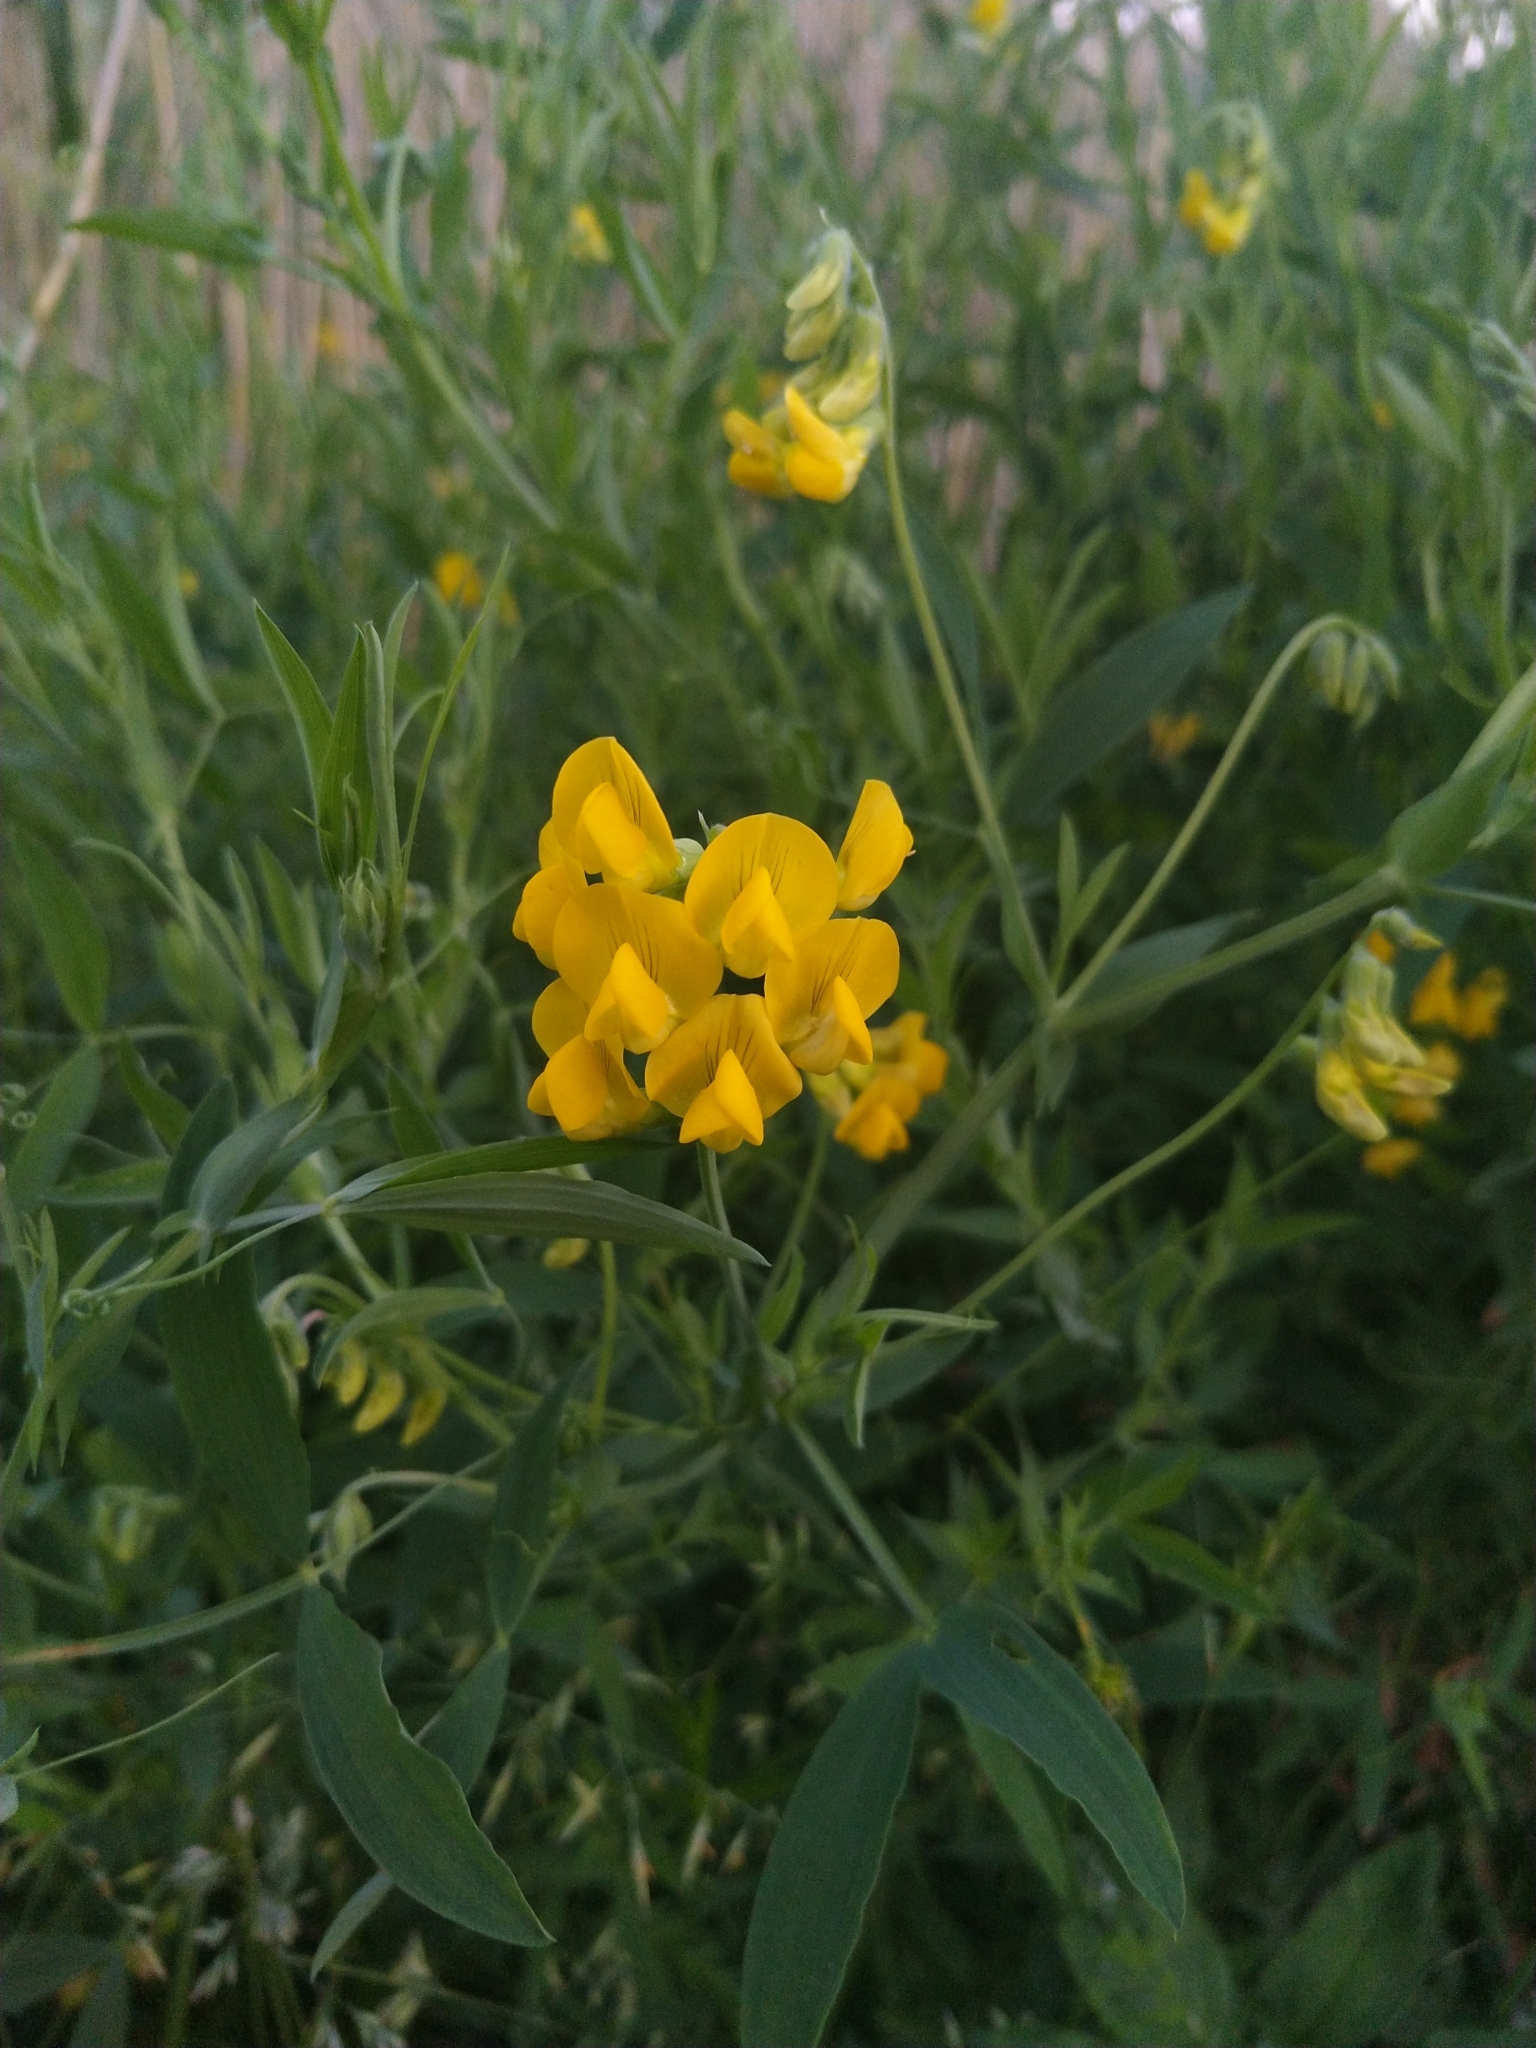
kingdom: Plantae
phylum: Tracheophyta
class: Magnoliopsida
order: Fabales
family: Fabaceae
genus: Lathyrus
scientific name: Lathyrus pratensis
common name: Meadow vetchling
